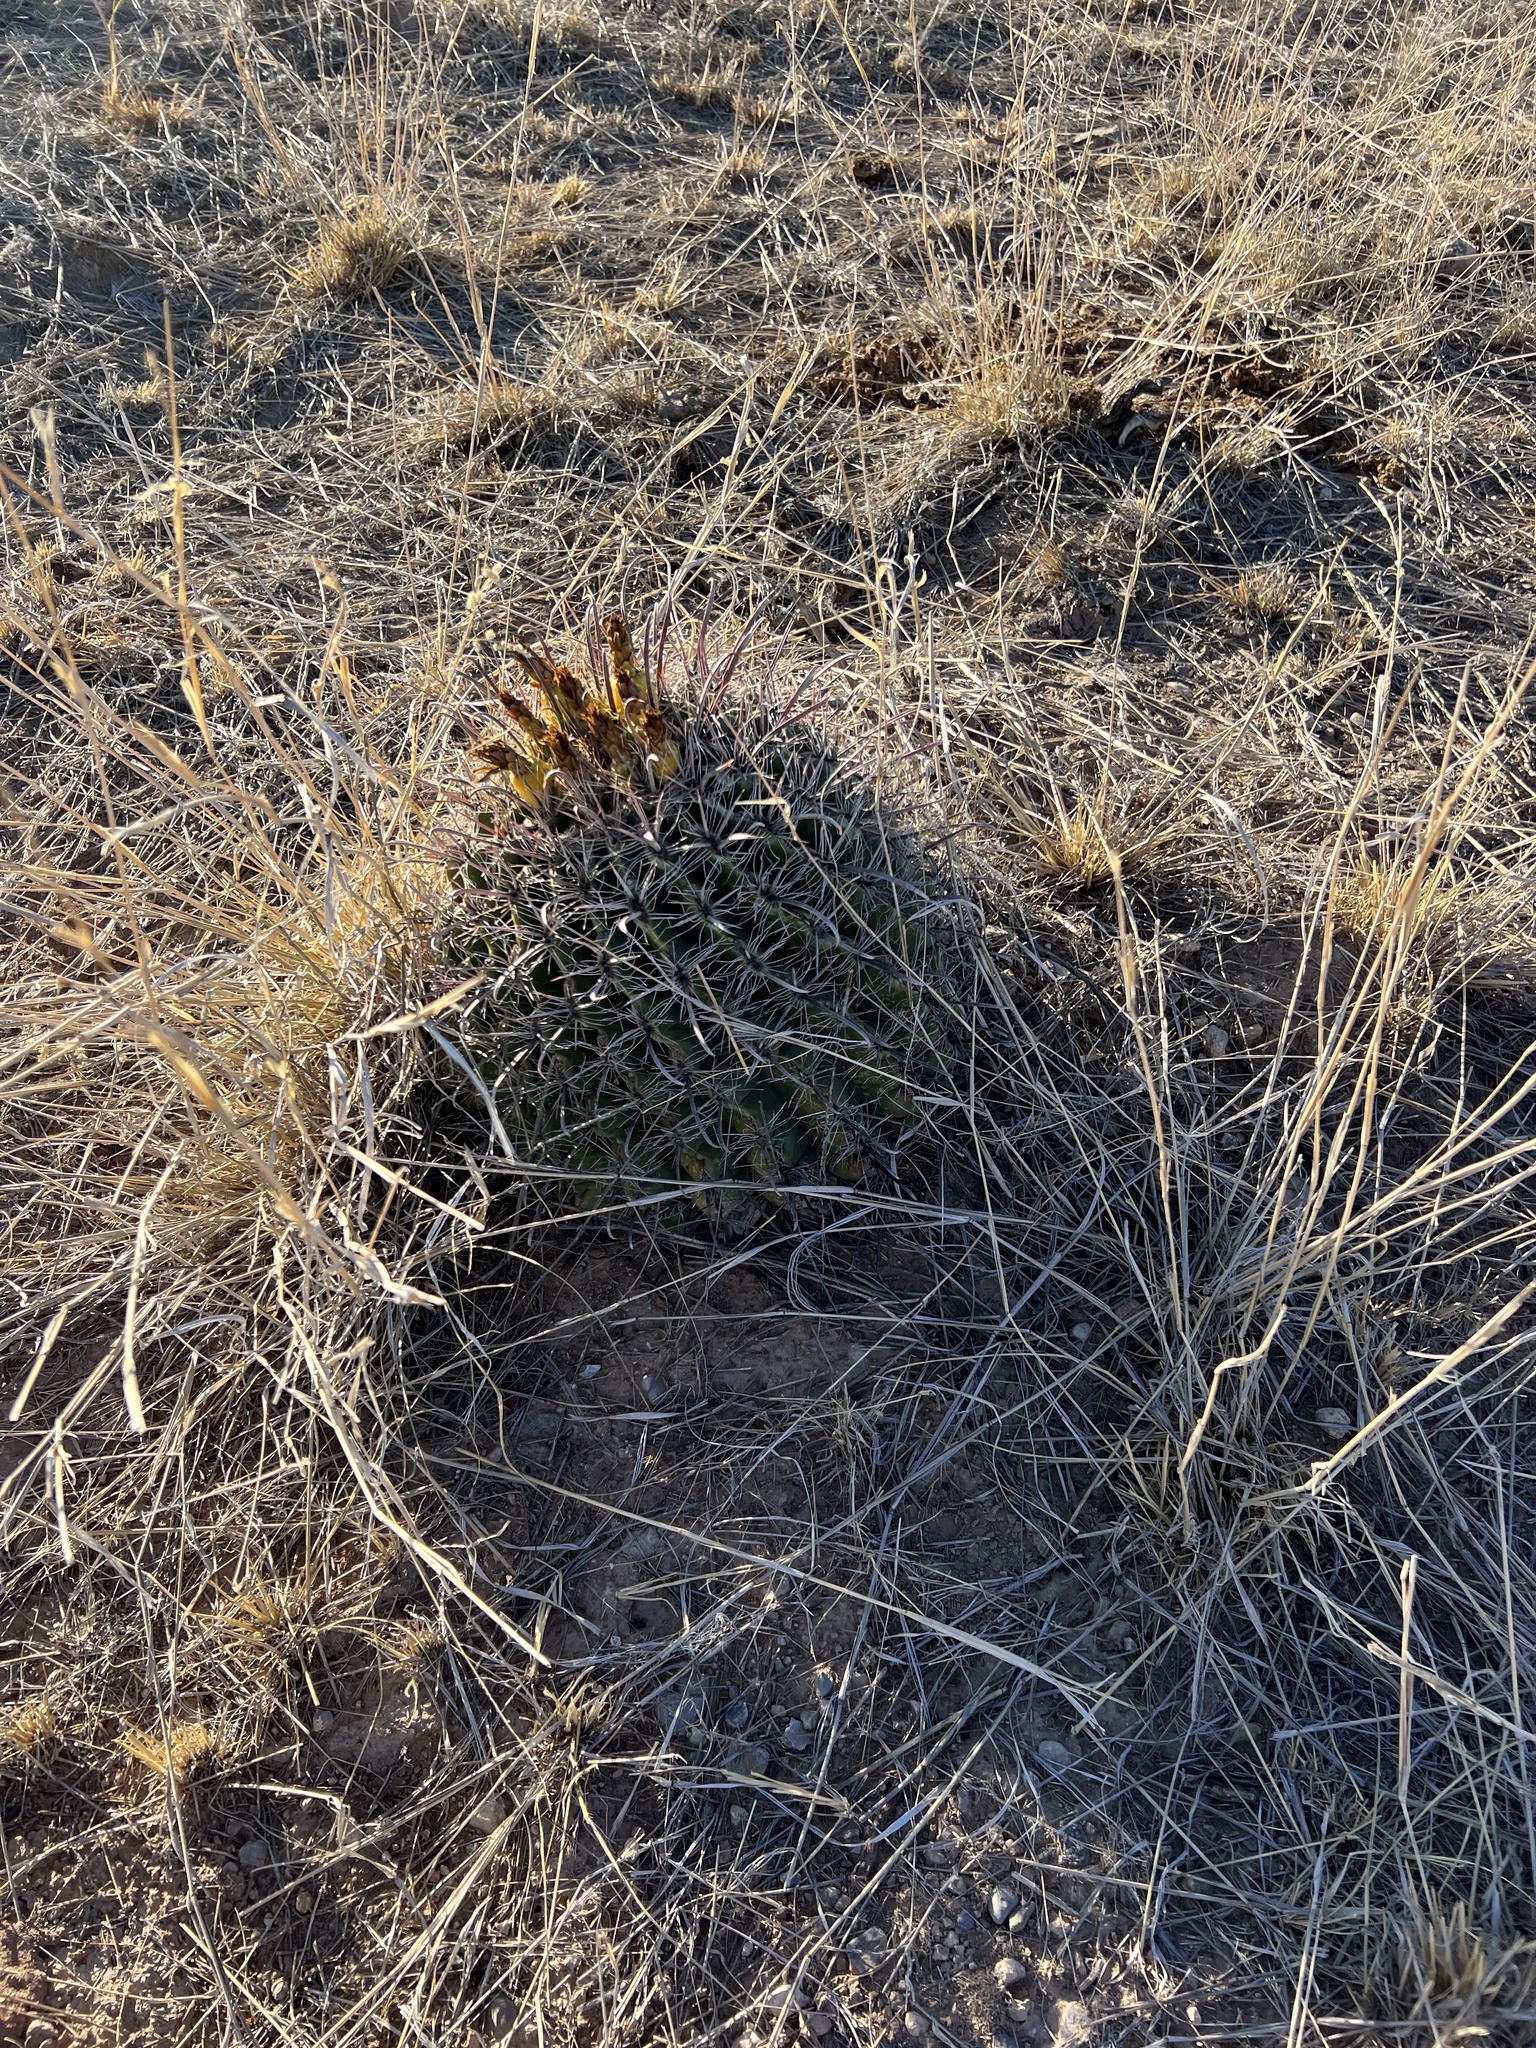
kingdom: Plantae
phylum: Tracheophyta
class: Magnoliopsida
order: Caryophyllales
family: Cactaceae
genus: Ferocactus
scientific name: Ferocactus wislizeni
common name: Candy barrel cactus
